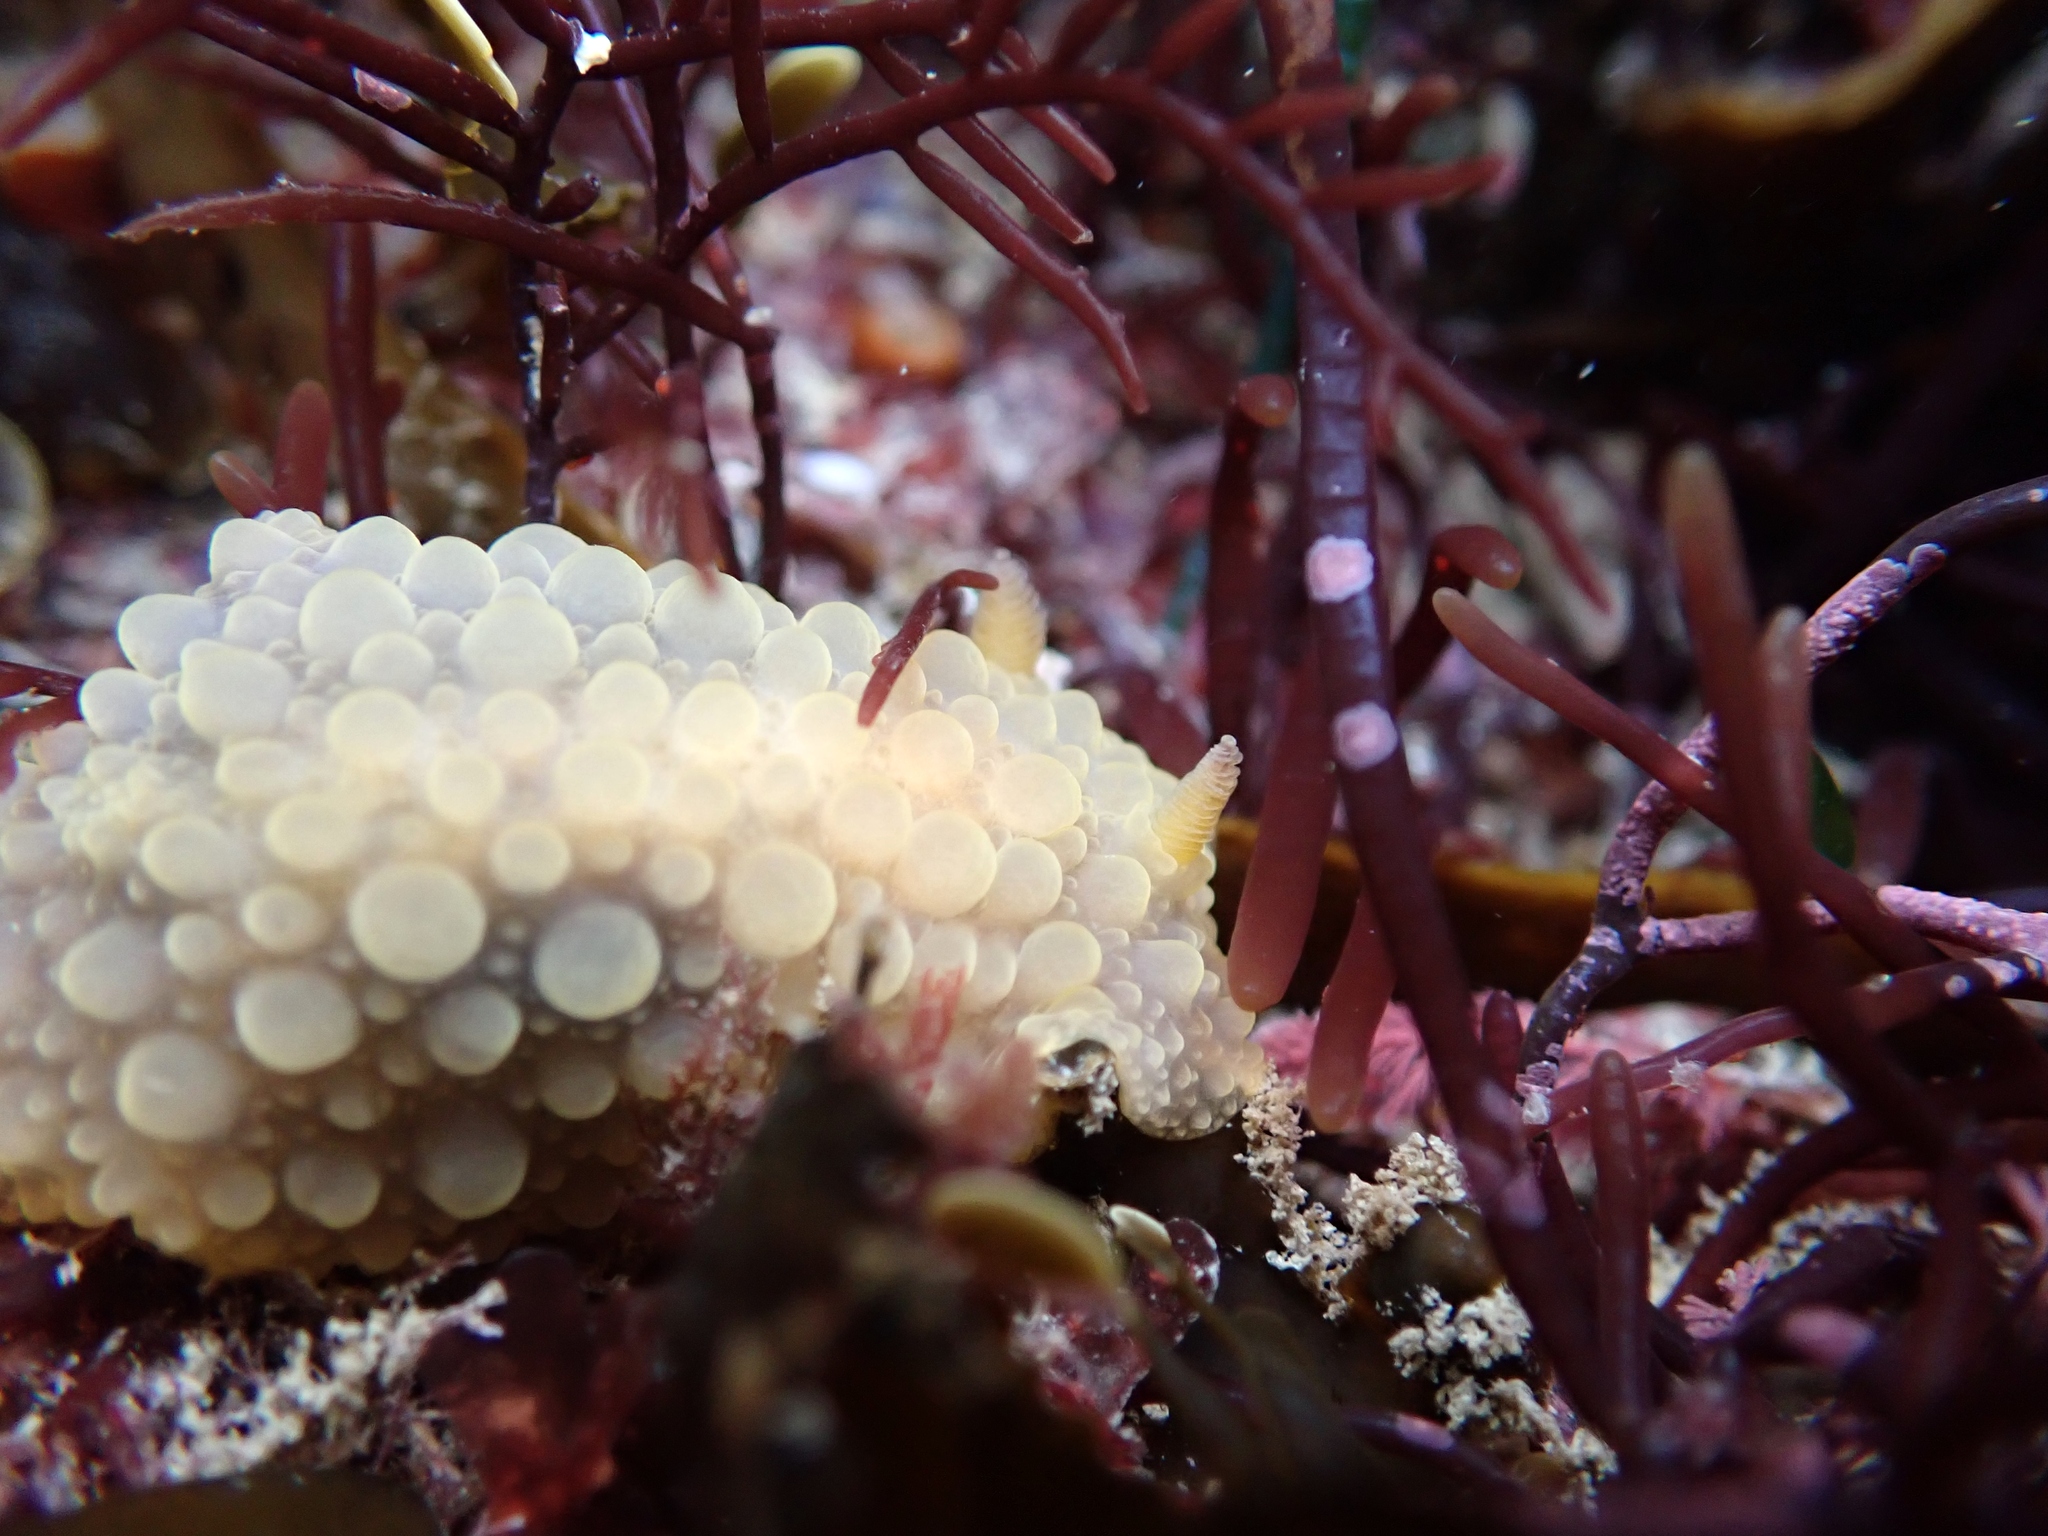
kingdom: Animalia
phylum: Mollusca
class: Gastropoda
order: Nudibranchia
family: Dorididae
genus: Doris
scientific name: Doris wellingtonensis
